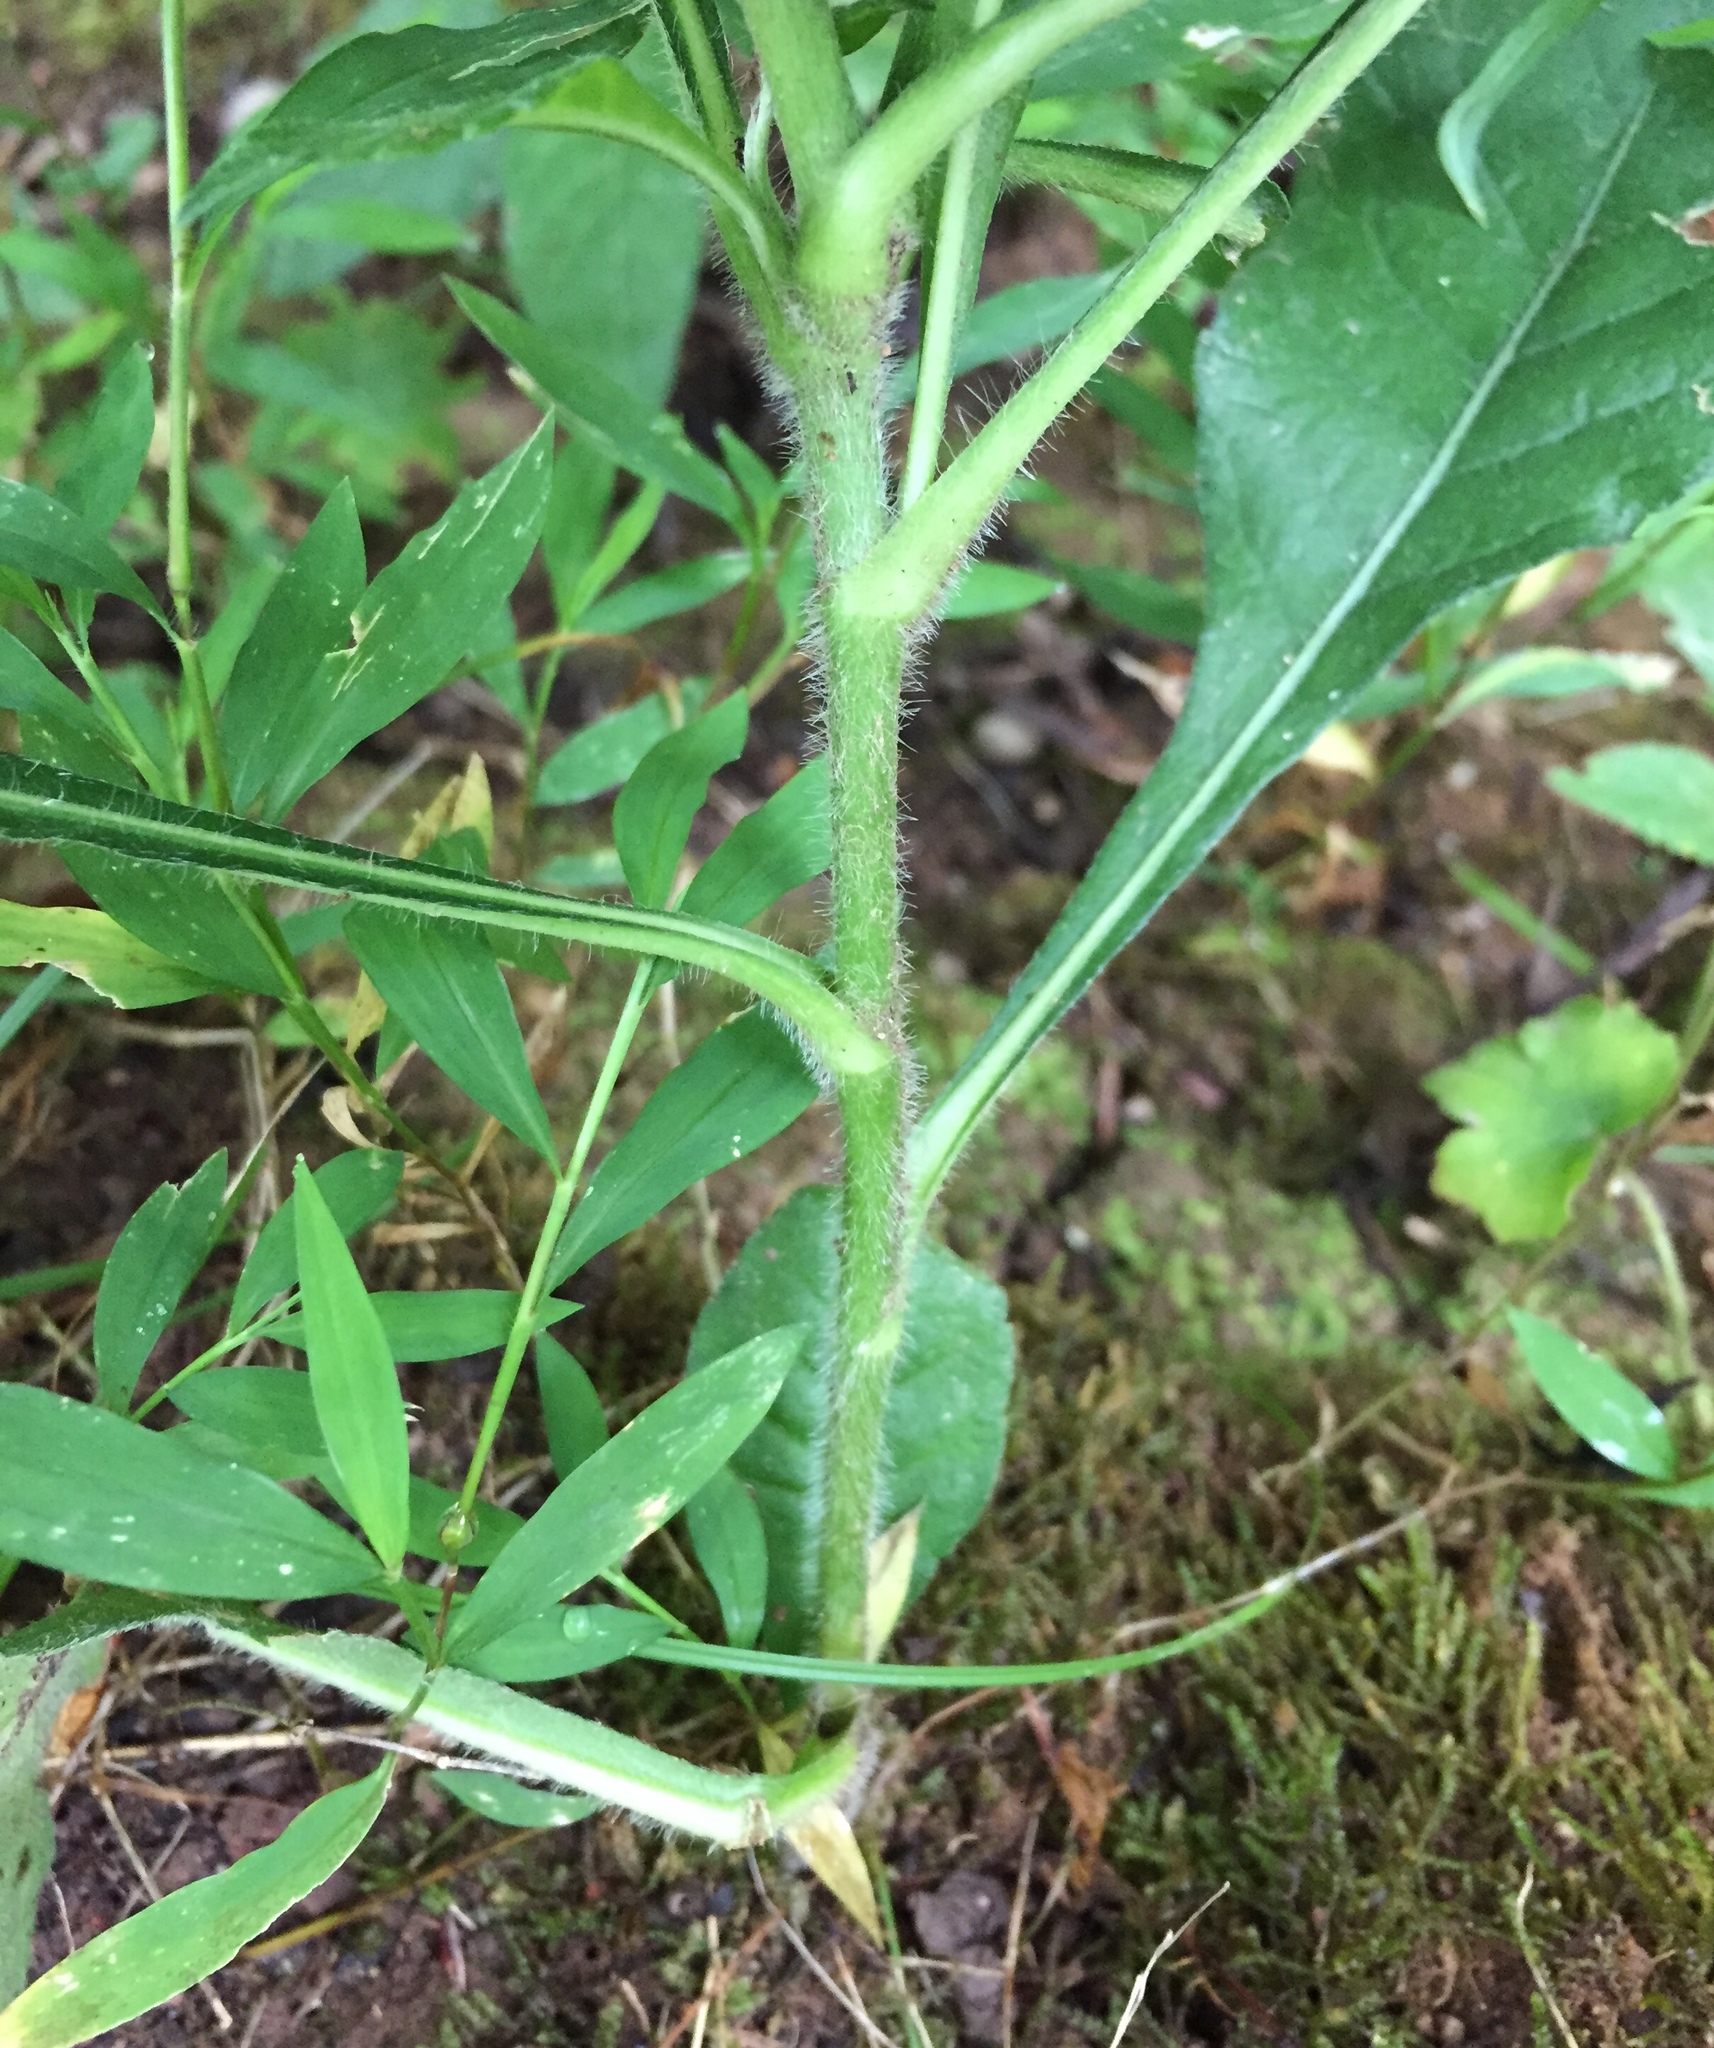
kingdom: Plantae
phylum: Tracheophyta
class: Magnoliopsida
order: Asterales
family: Asteraceae
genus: Elephantopus
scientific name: Elephantopus carolinianus
